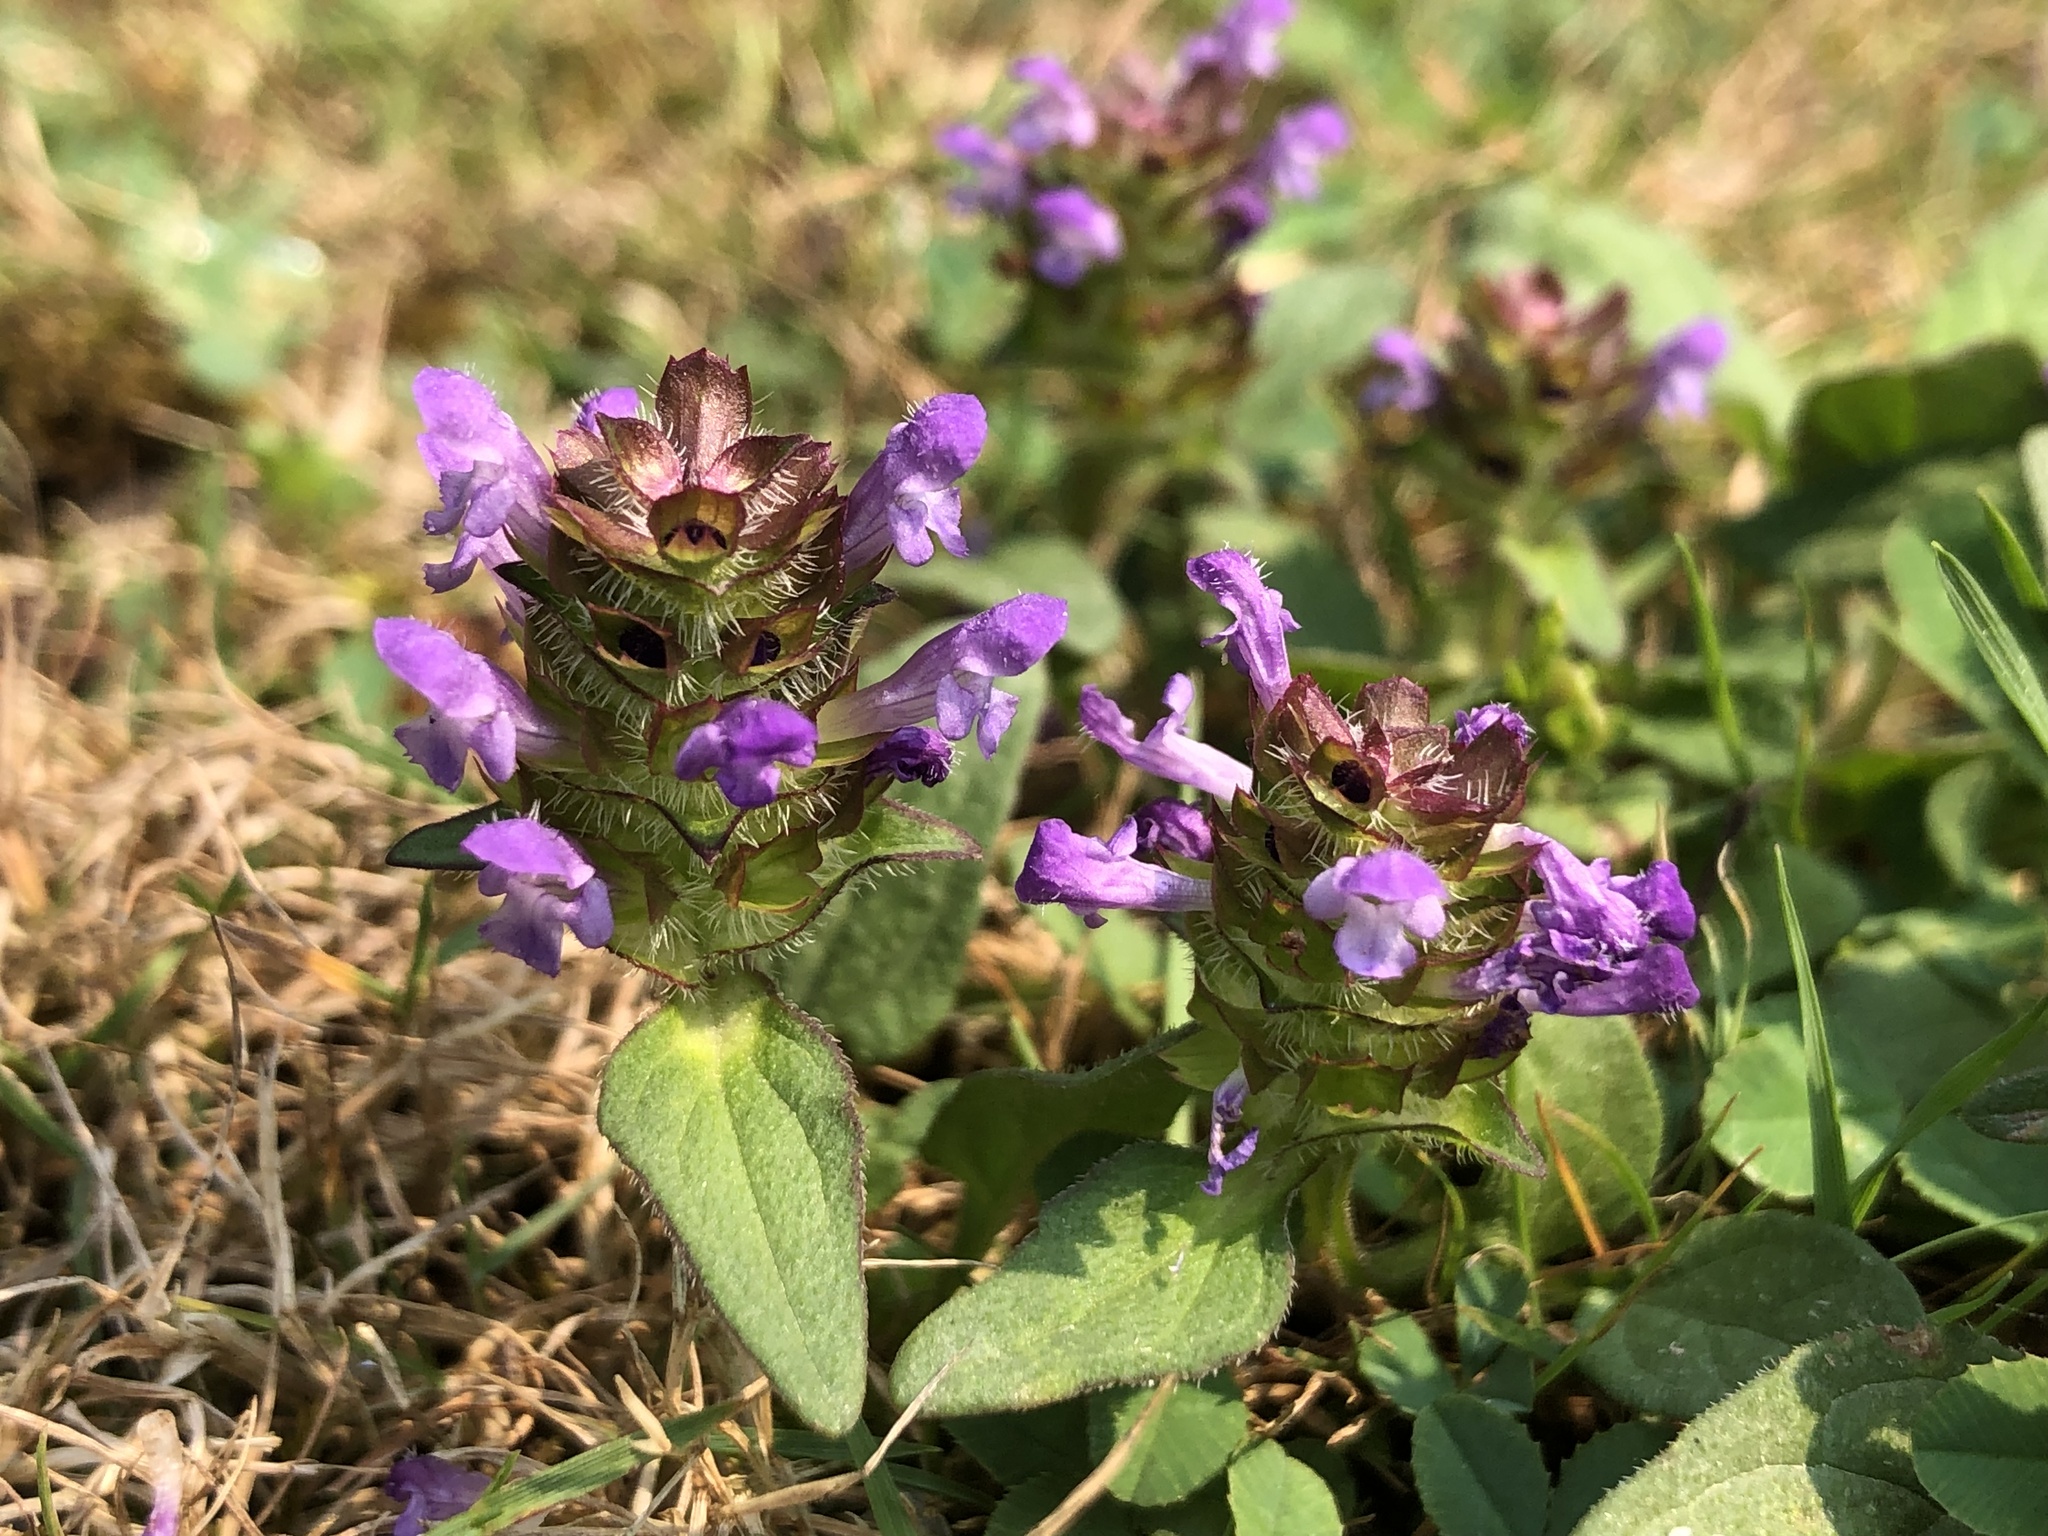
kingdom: Plantae
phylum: Tracheophyta
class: Magnoliopsida
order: Lamiales
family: Lamiaceae
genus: Prunella
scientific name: Prunella vulgaris
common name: Heal-all
